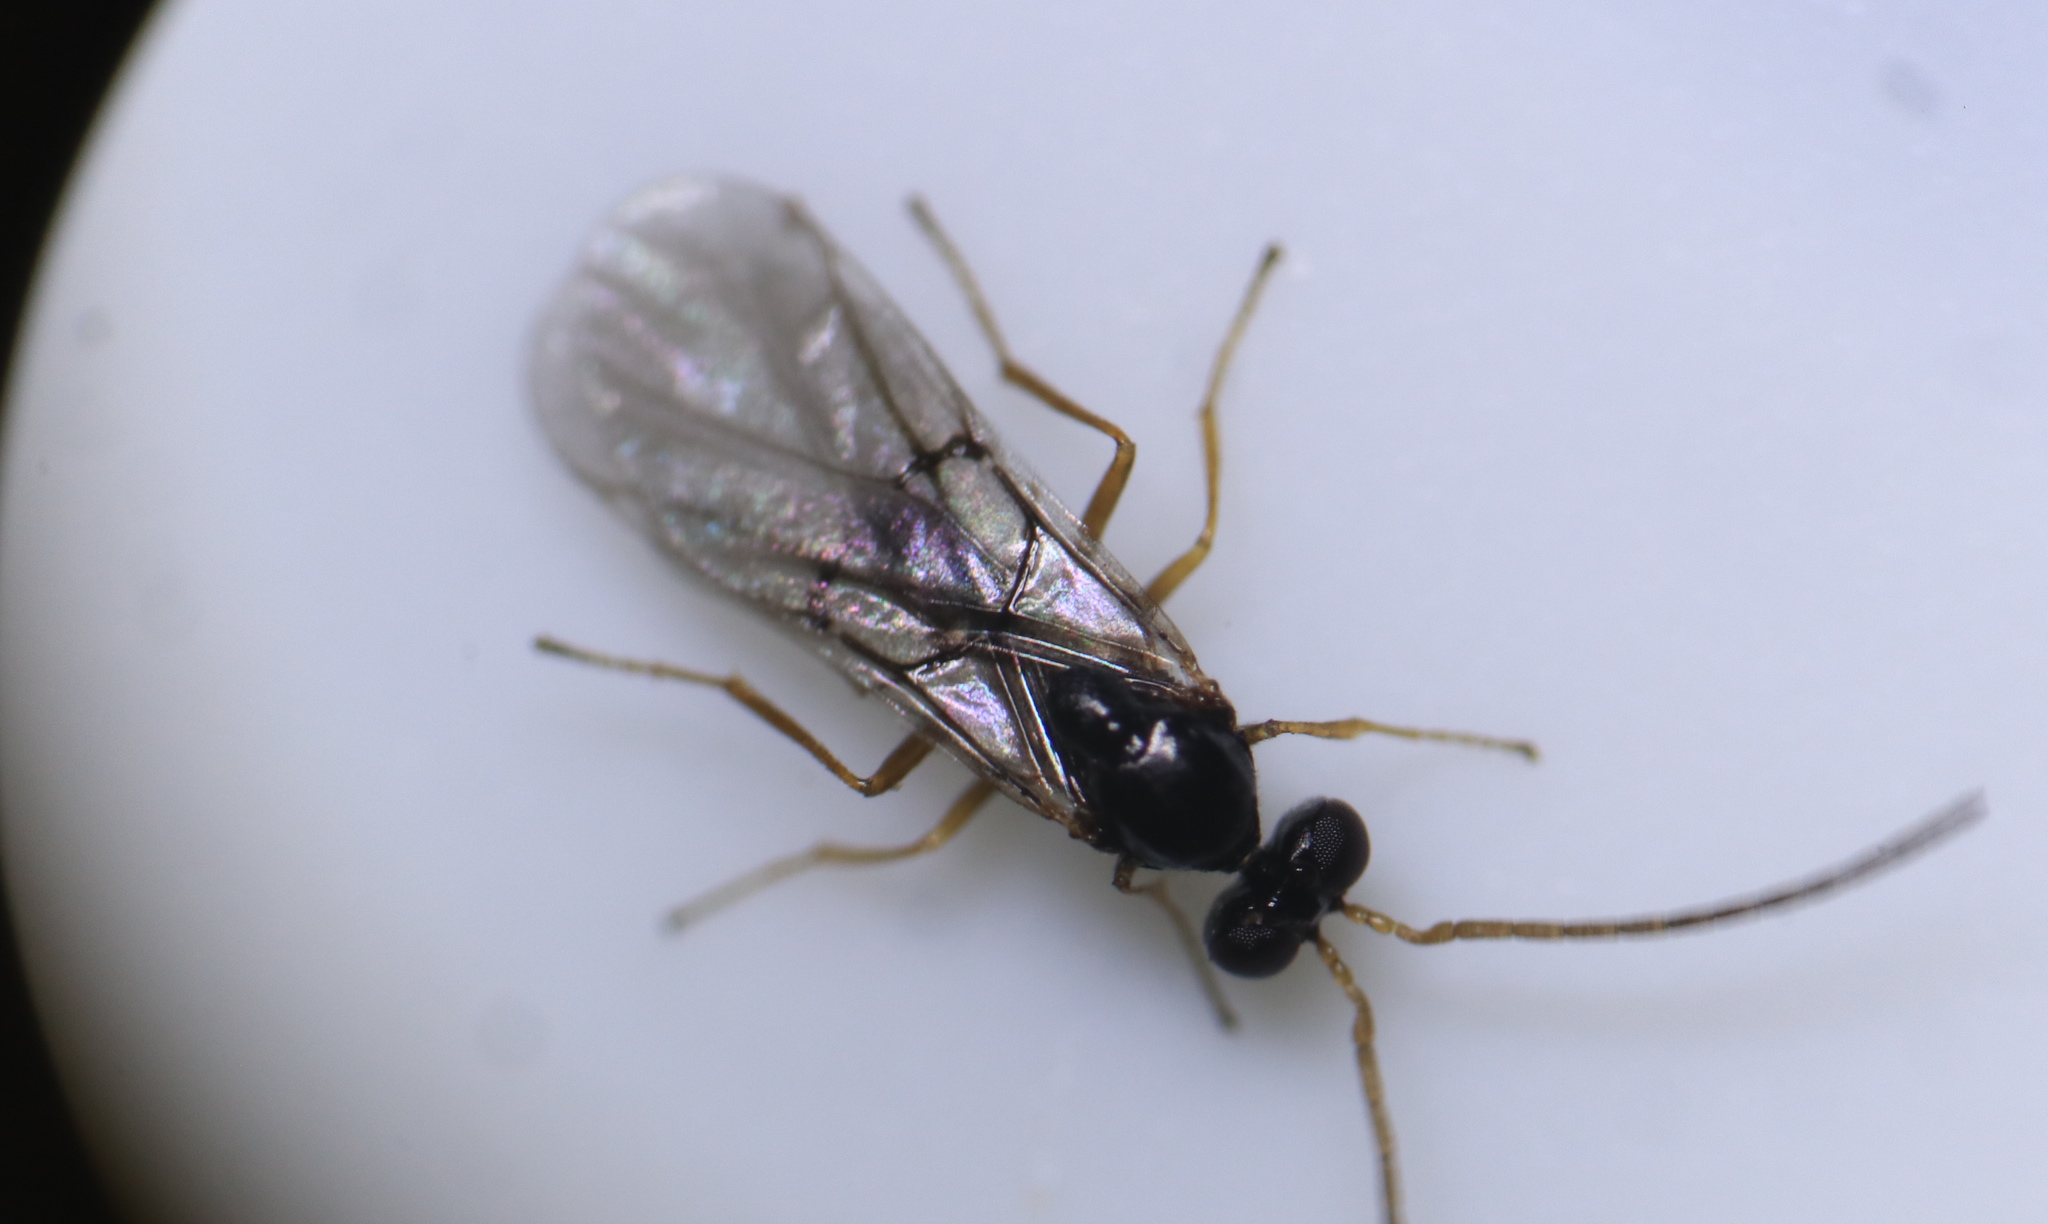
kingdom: Animalia
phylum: Arthropoda
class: Insecta
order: Hymenoptera
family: Cynipidae
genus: Neuroterus
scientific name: Neuroterus
